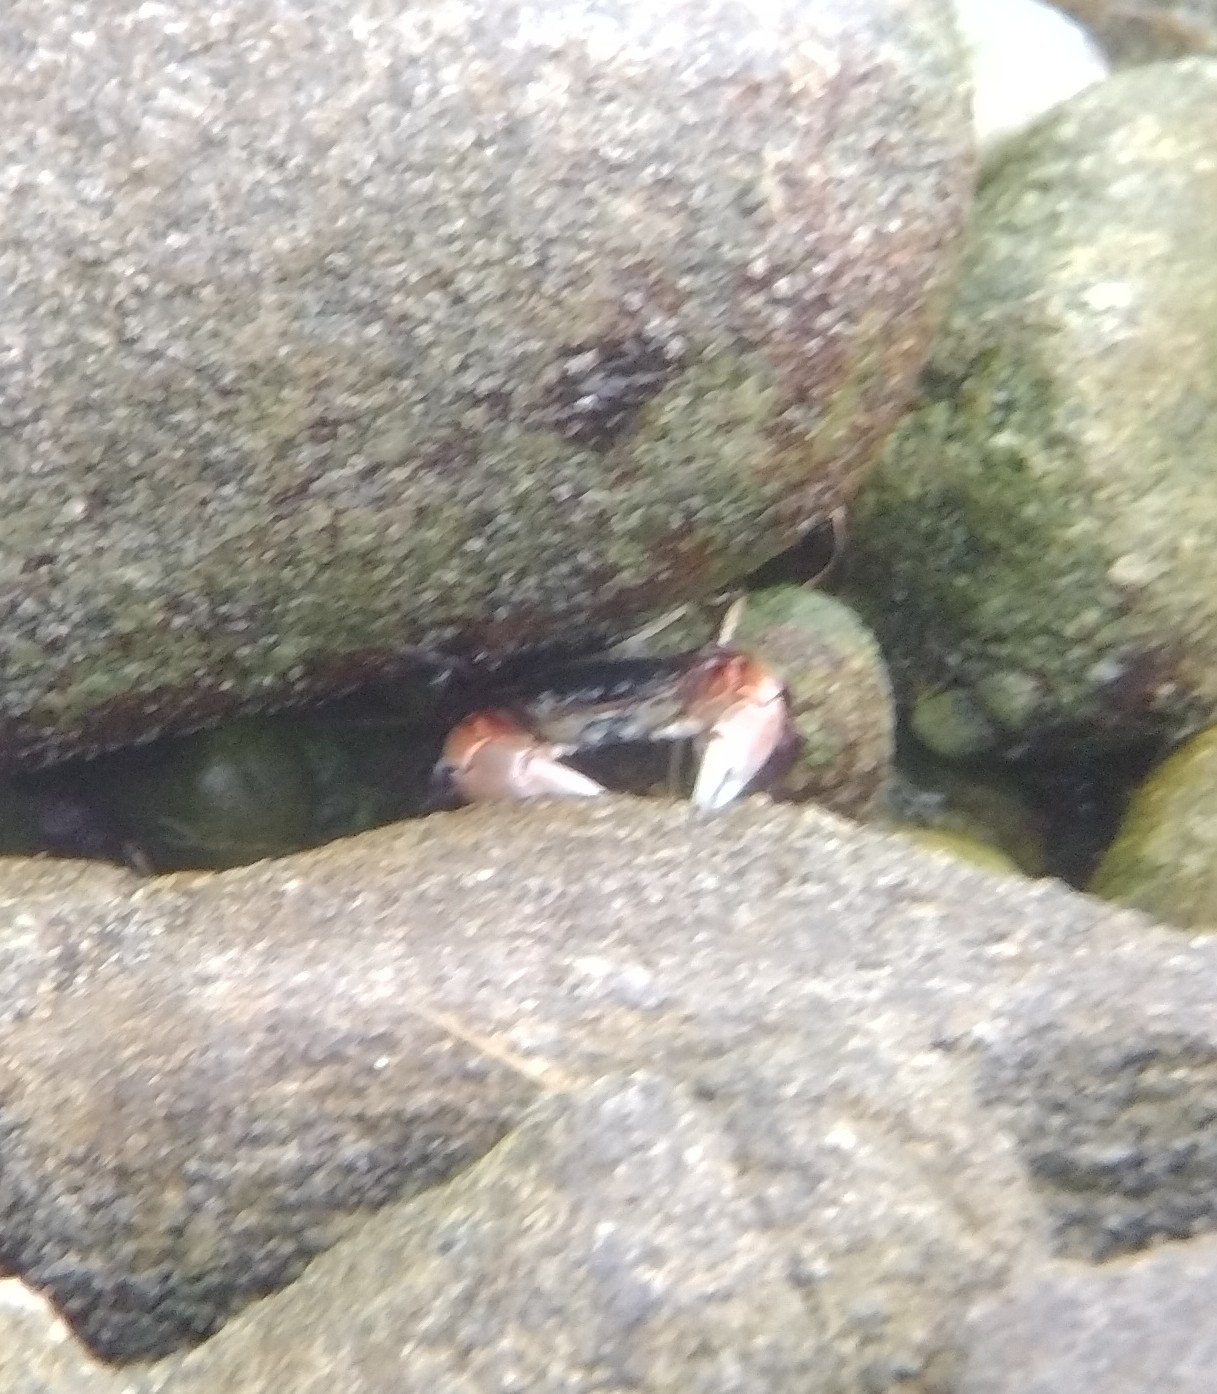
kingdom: Animalia
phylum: Arthropoda
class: Malacostraca
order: Decapoda
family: Grapsidae
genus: Pachygrapsus
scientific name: Pachygrapsus crassipes
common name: Striped shore crab
